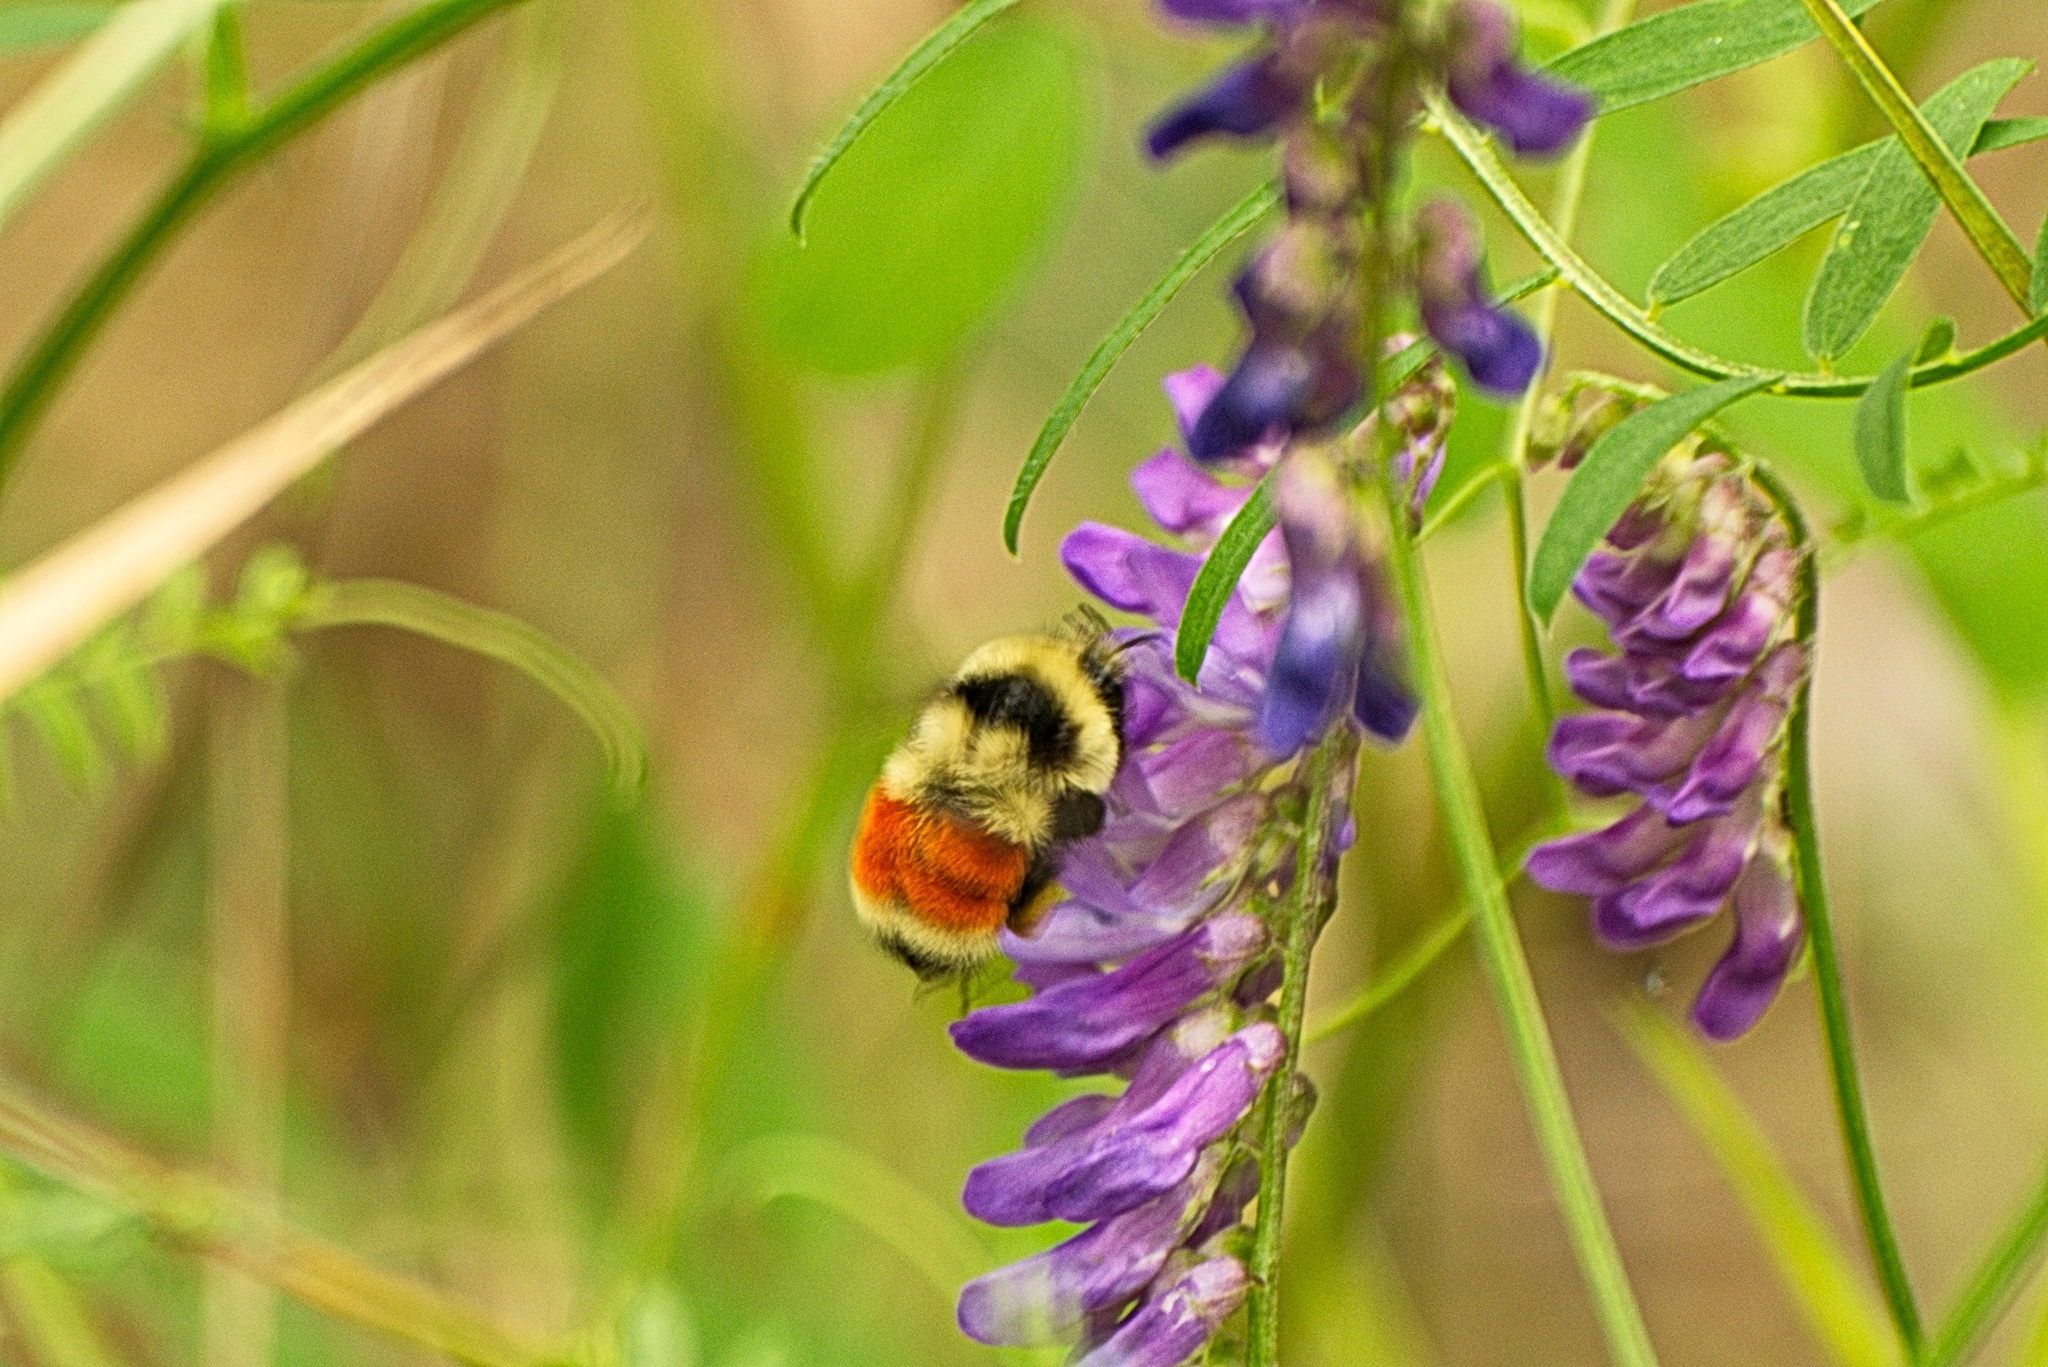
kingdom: Animalia
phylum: Arthropoda
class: Insecta
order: Hymenoptera
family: Apidae
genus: Bombus
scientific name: Bombus huntii
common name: Hunt bumble bee
